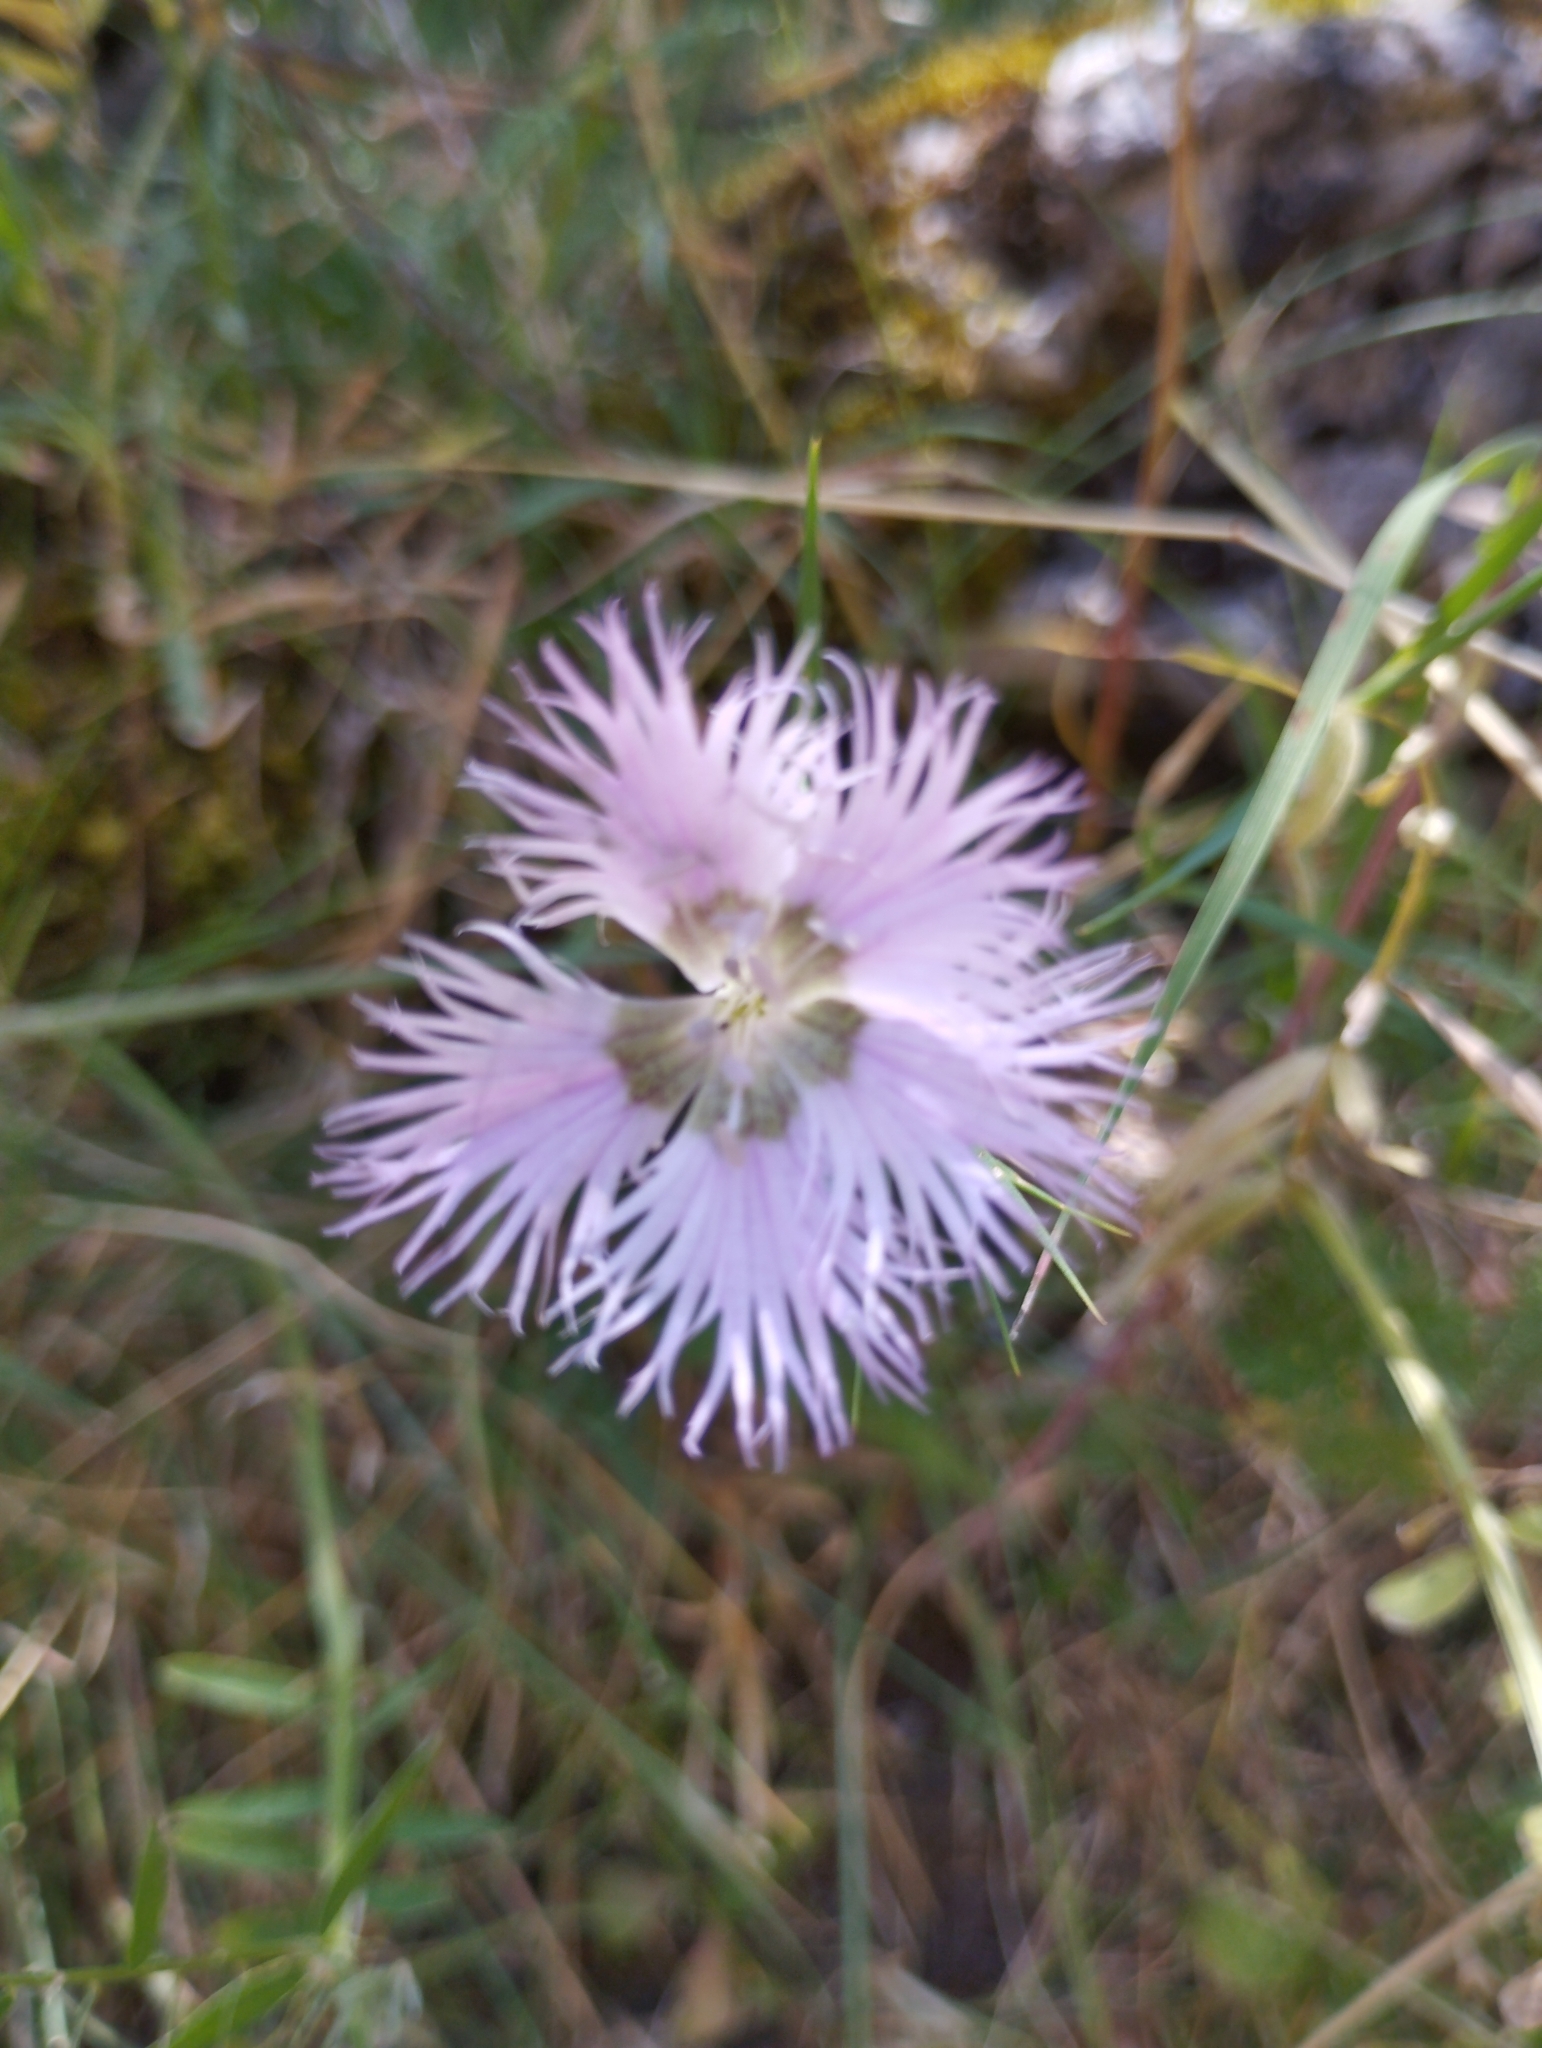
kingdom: Plantae
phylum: Tracheophyta
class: Magnoliopsida
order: Caryophyllales
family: Caryophyllaceae
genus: Dianthus
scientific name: Dianthus hyssopifolius
